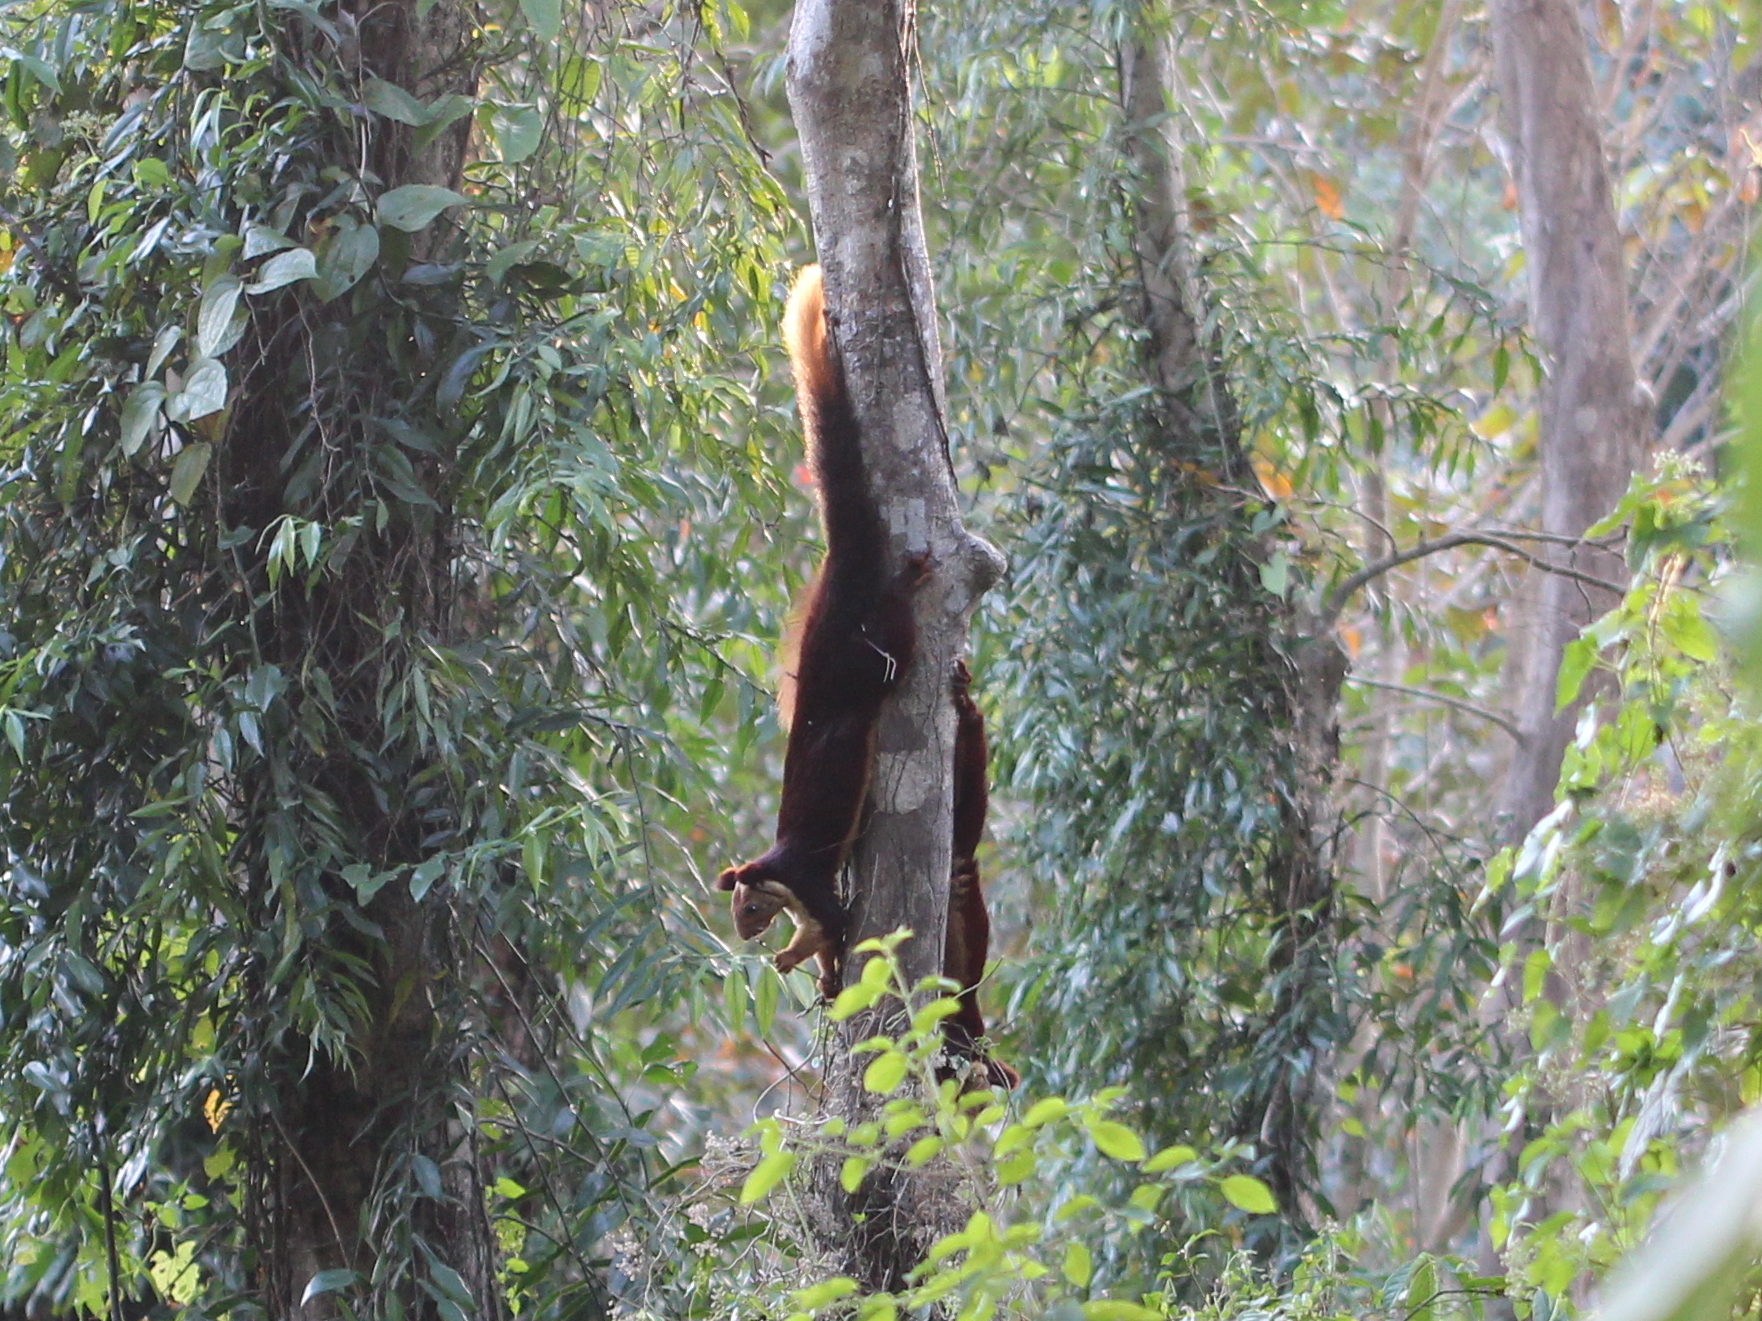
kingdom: Animalia
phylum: Chordata
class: Mammalia
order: Rodentia
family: Sciuridae
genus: Ratufa
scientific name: Ratufa indica
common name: Indian giant squirrel
